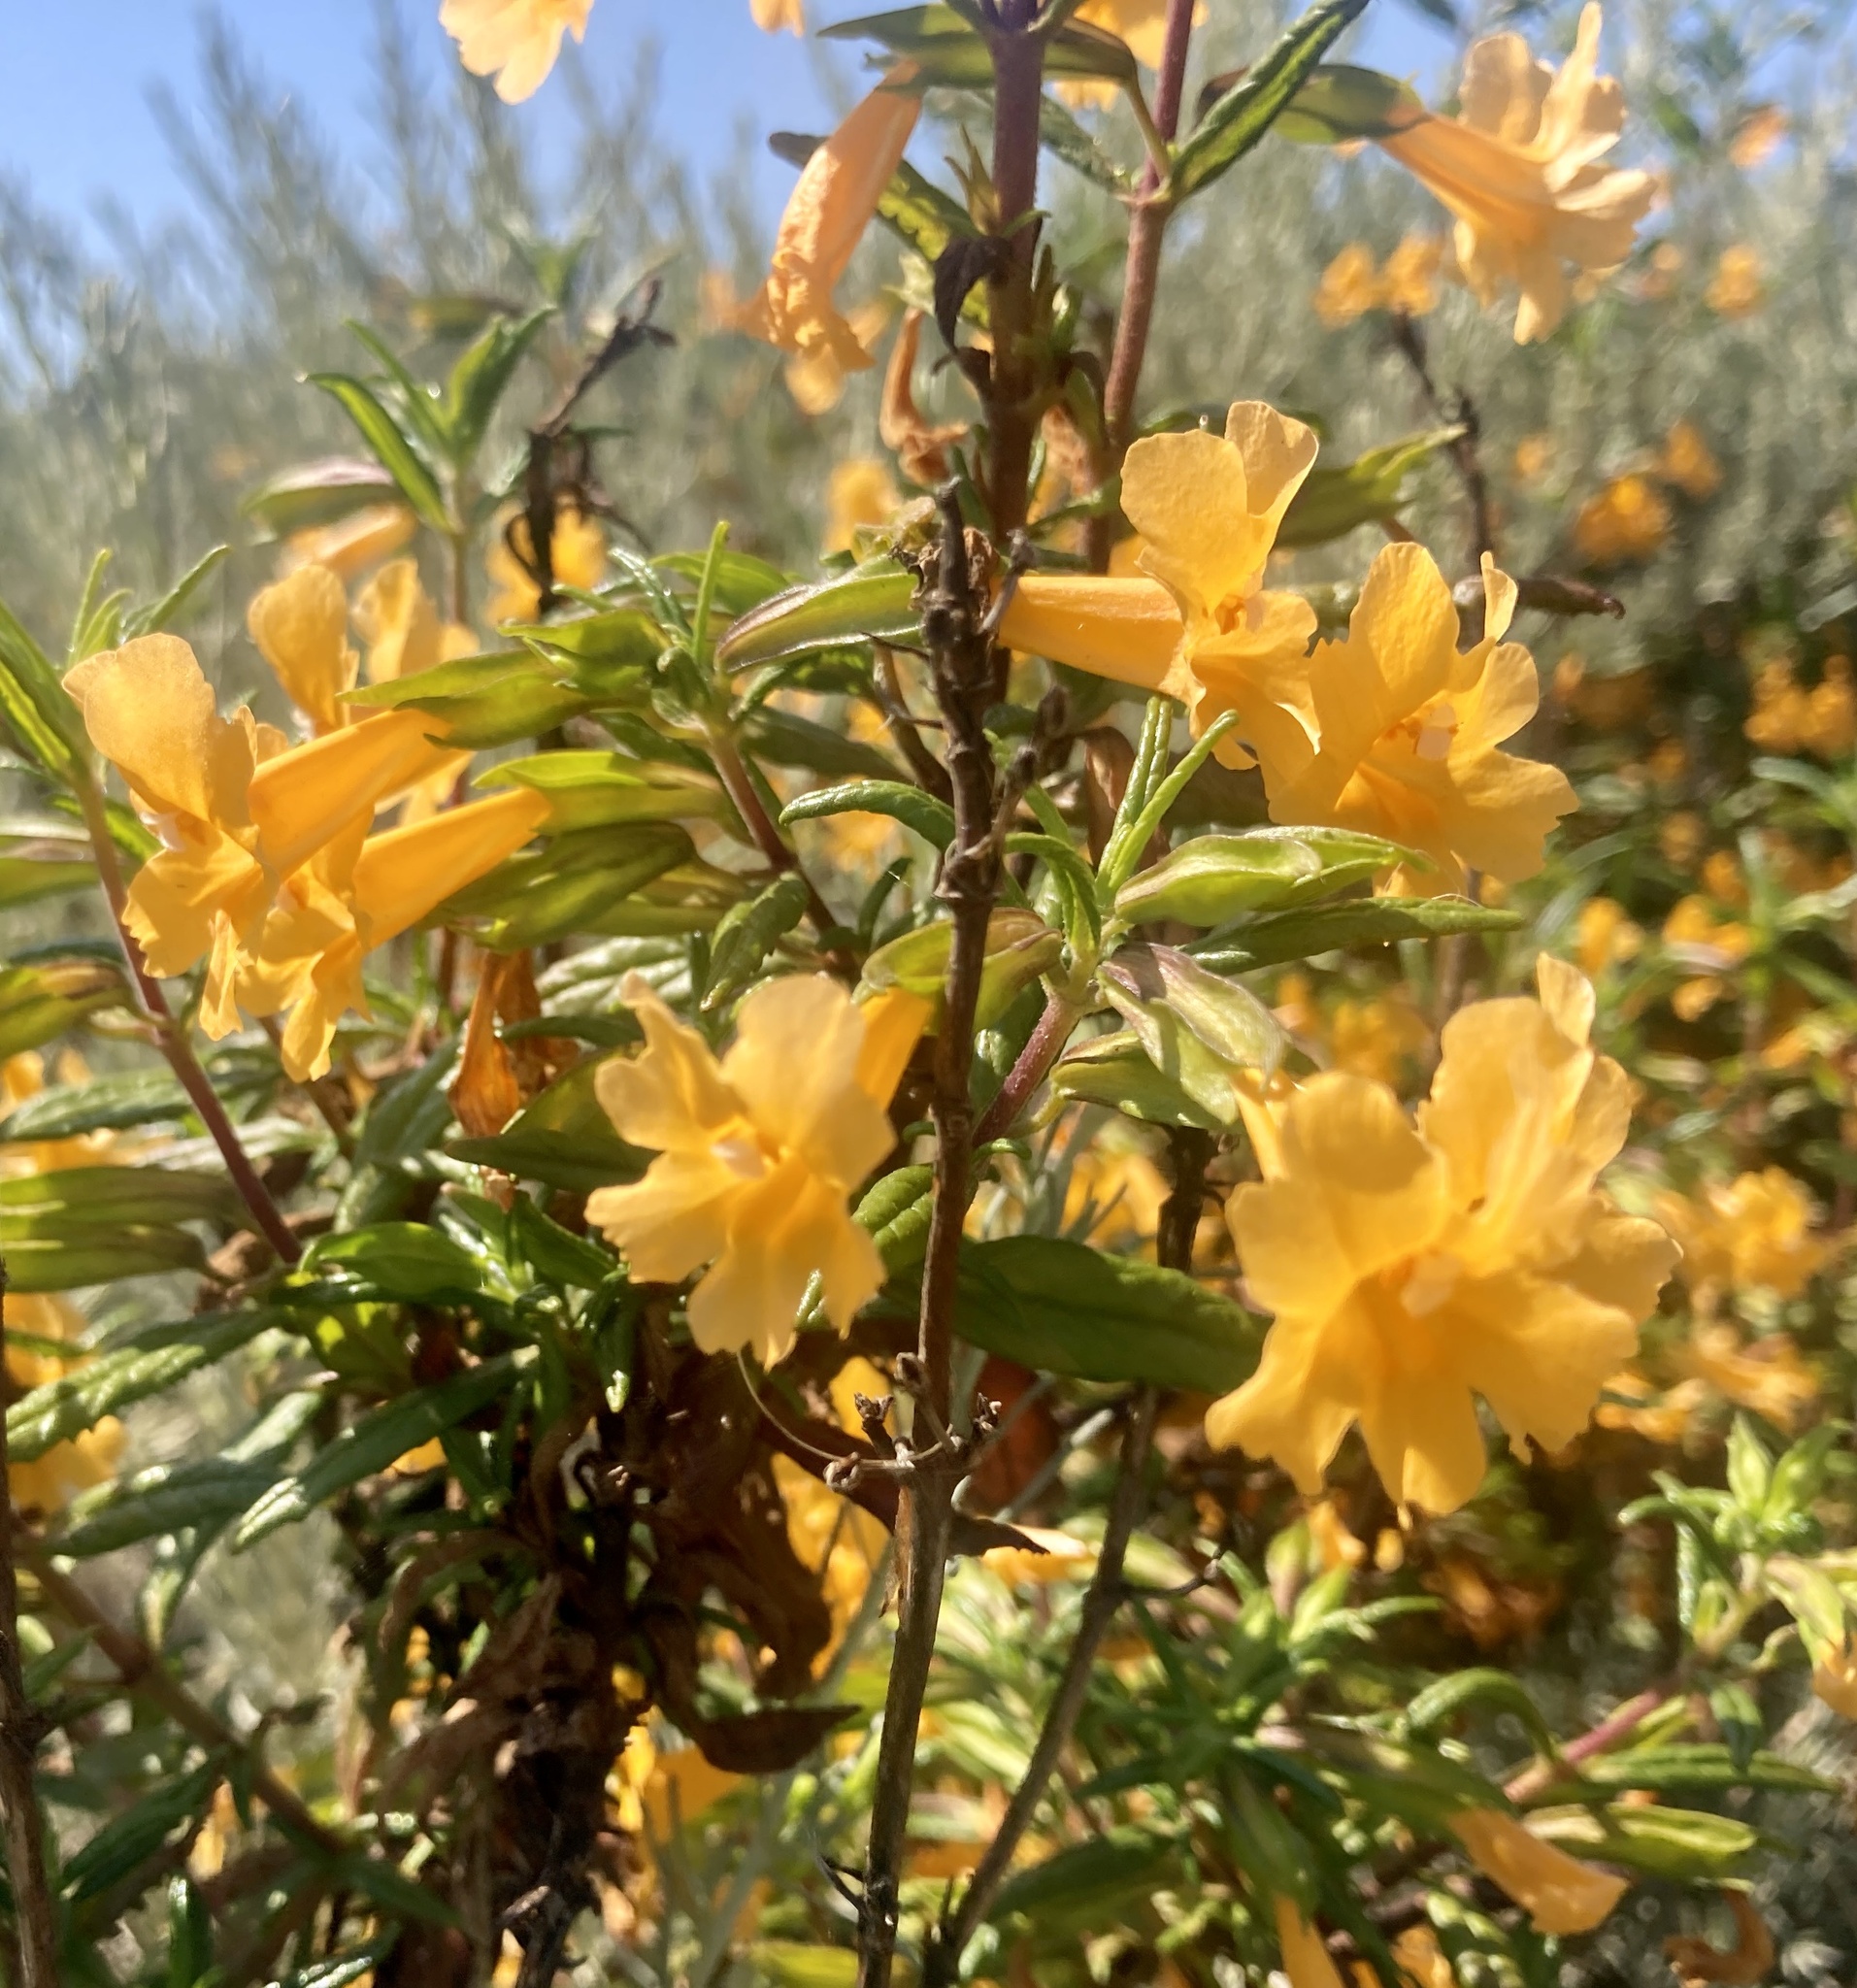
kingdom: Plantae
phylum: Tracheophyta
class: Magnoliopsida
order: Lamiales
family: Phrymaceae
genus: Diplacus
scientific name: Diplacus aurantiacus
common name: Bush monkey-flower
